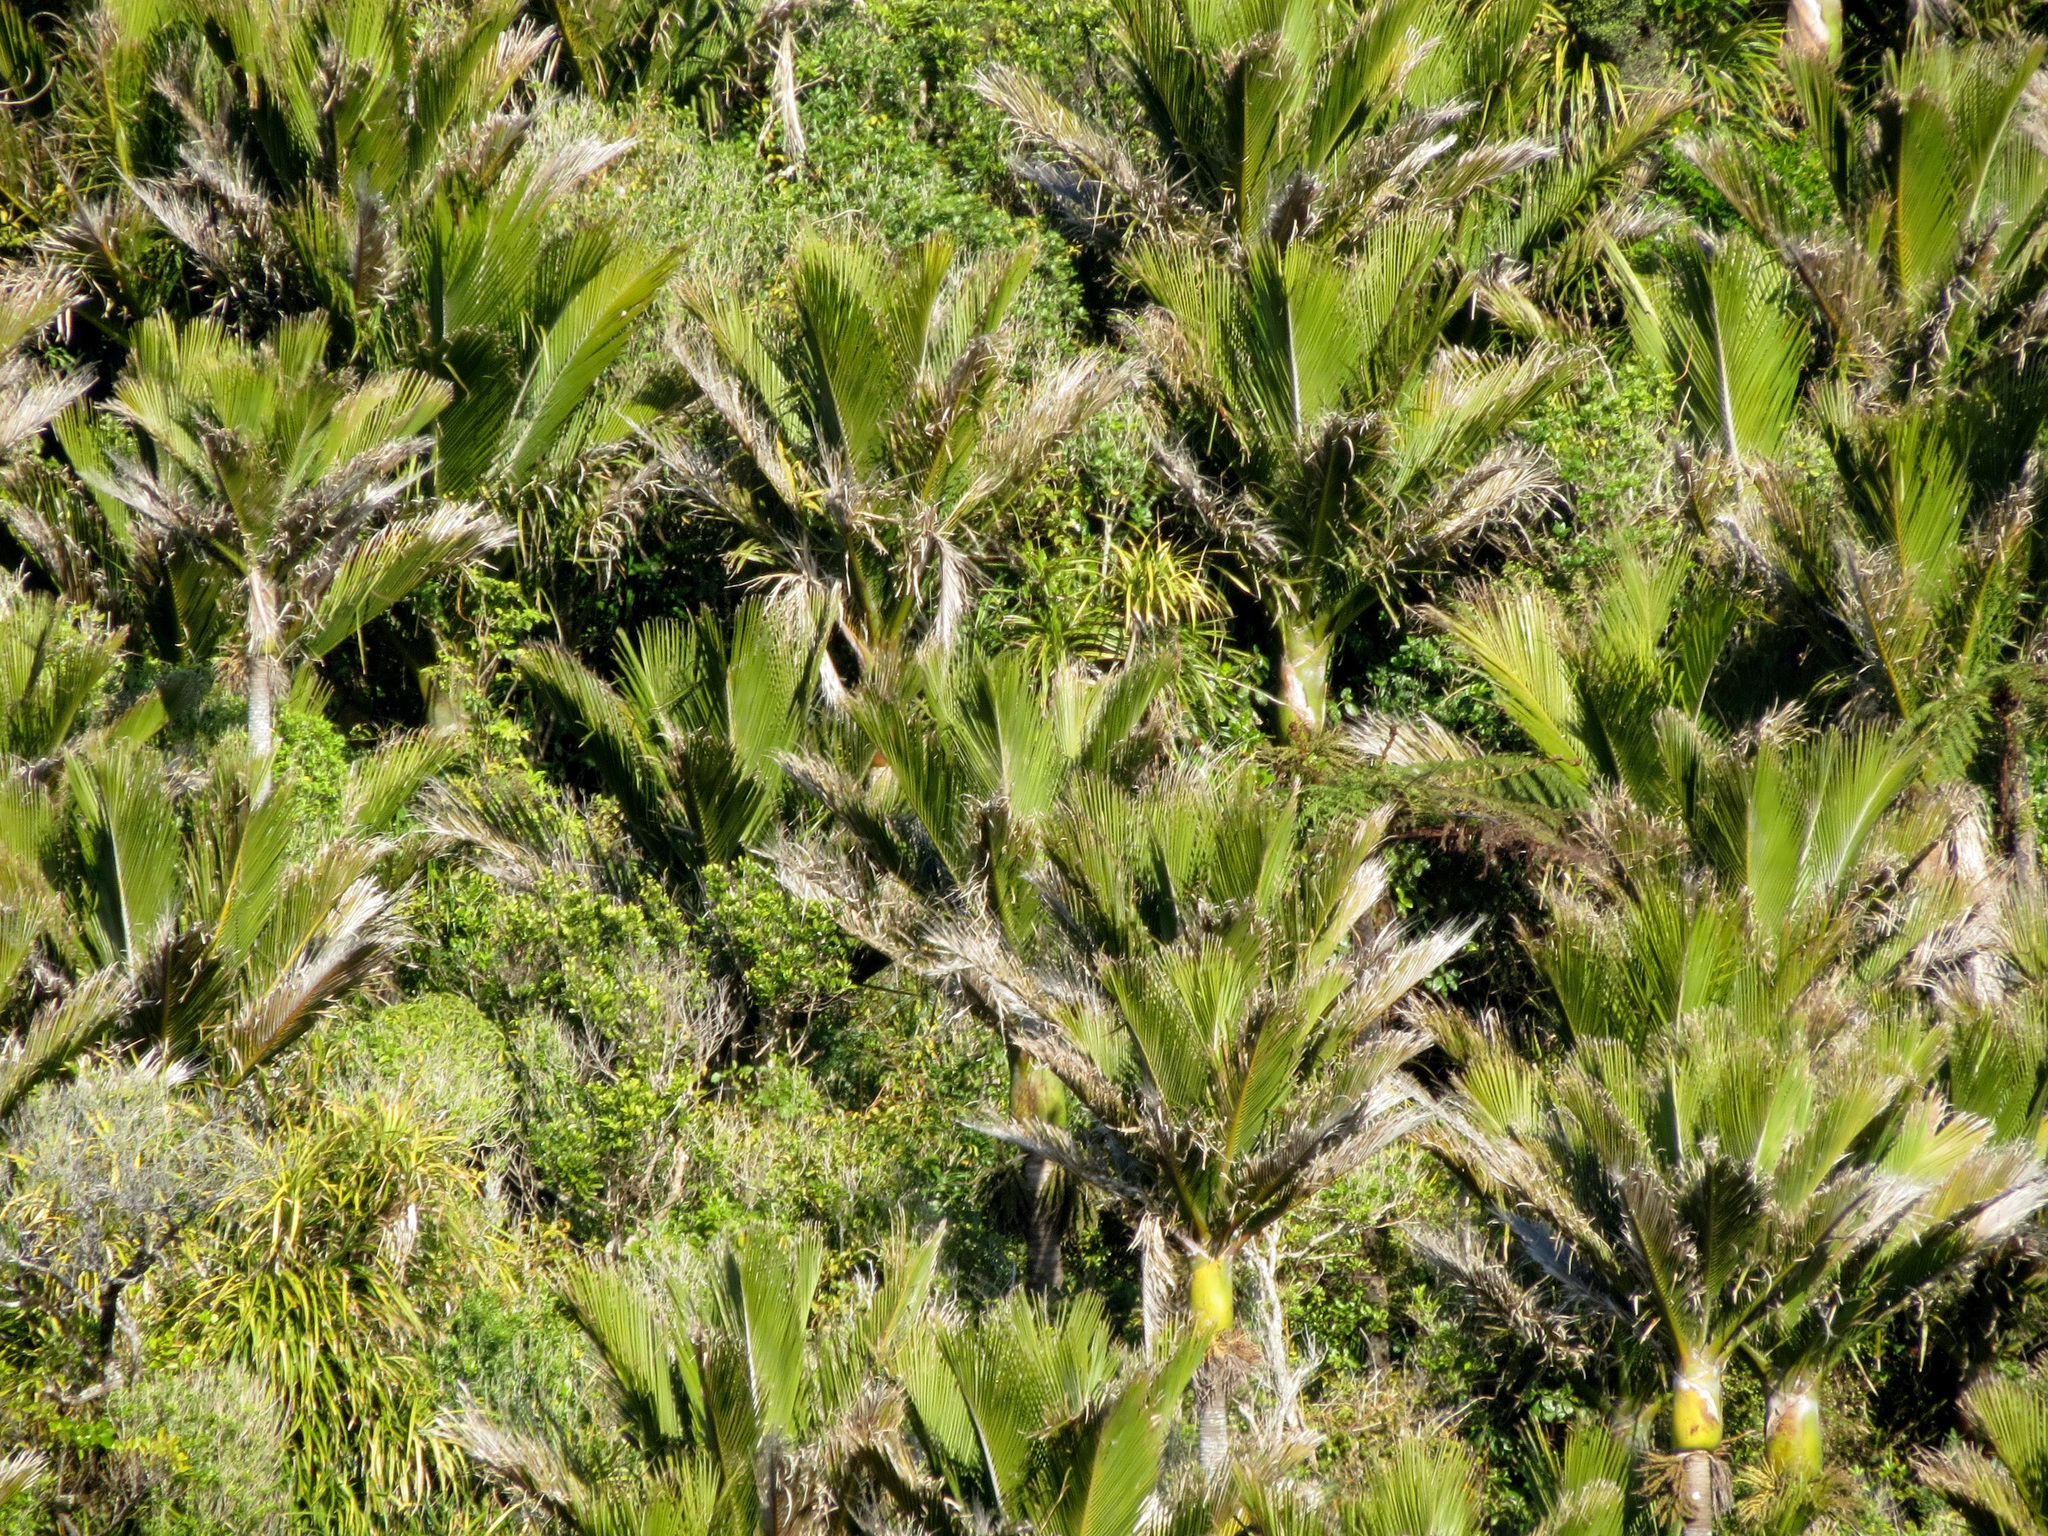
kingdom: Plantae
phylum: Tracheophyta
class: Liliopsida
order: Arecales
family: Arecaceae
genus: Rhopalostylis
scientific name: Rhopalostylis sapida
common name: Feather-duster palm
